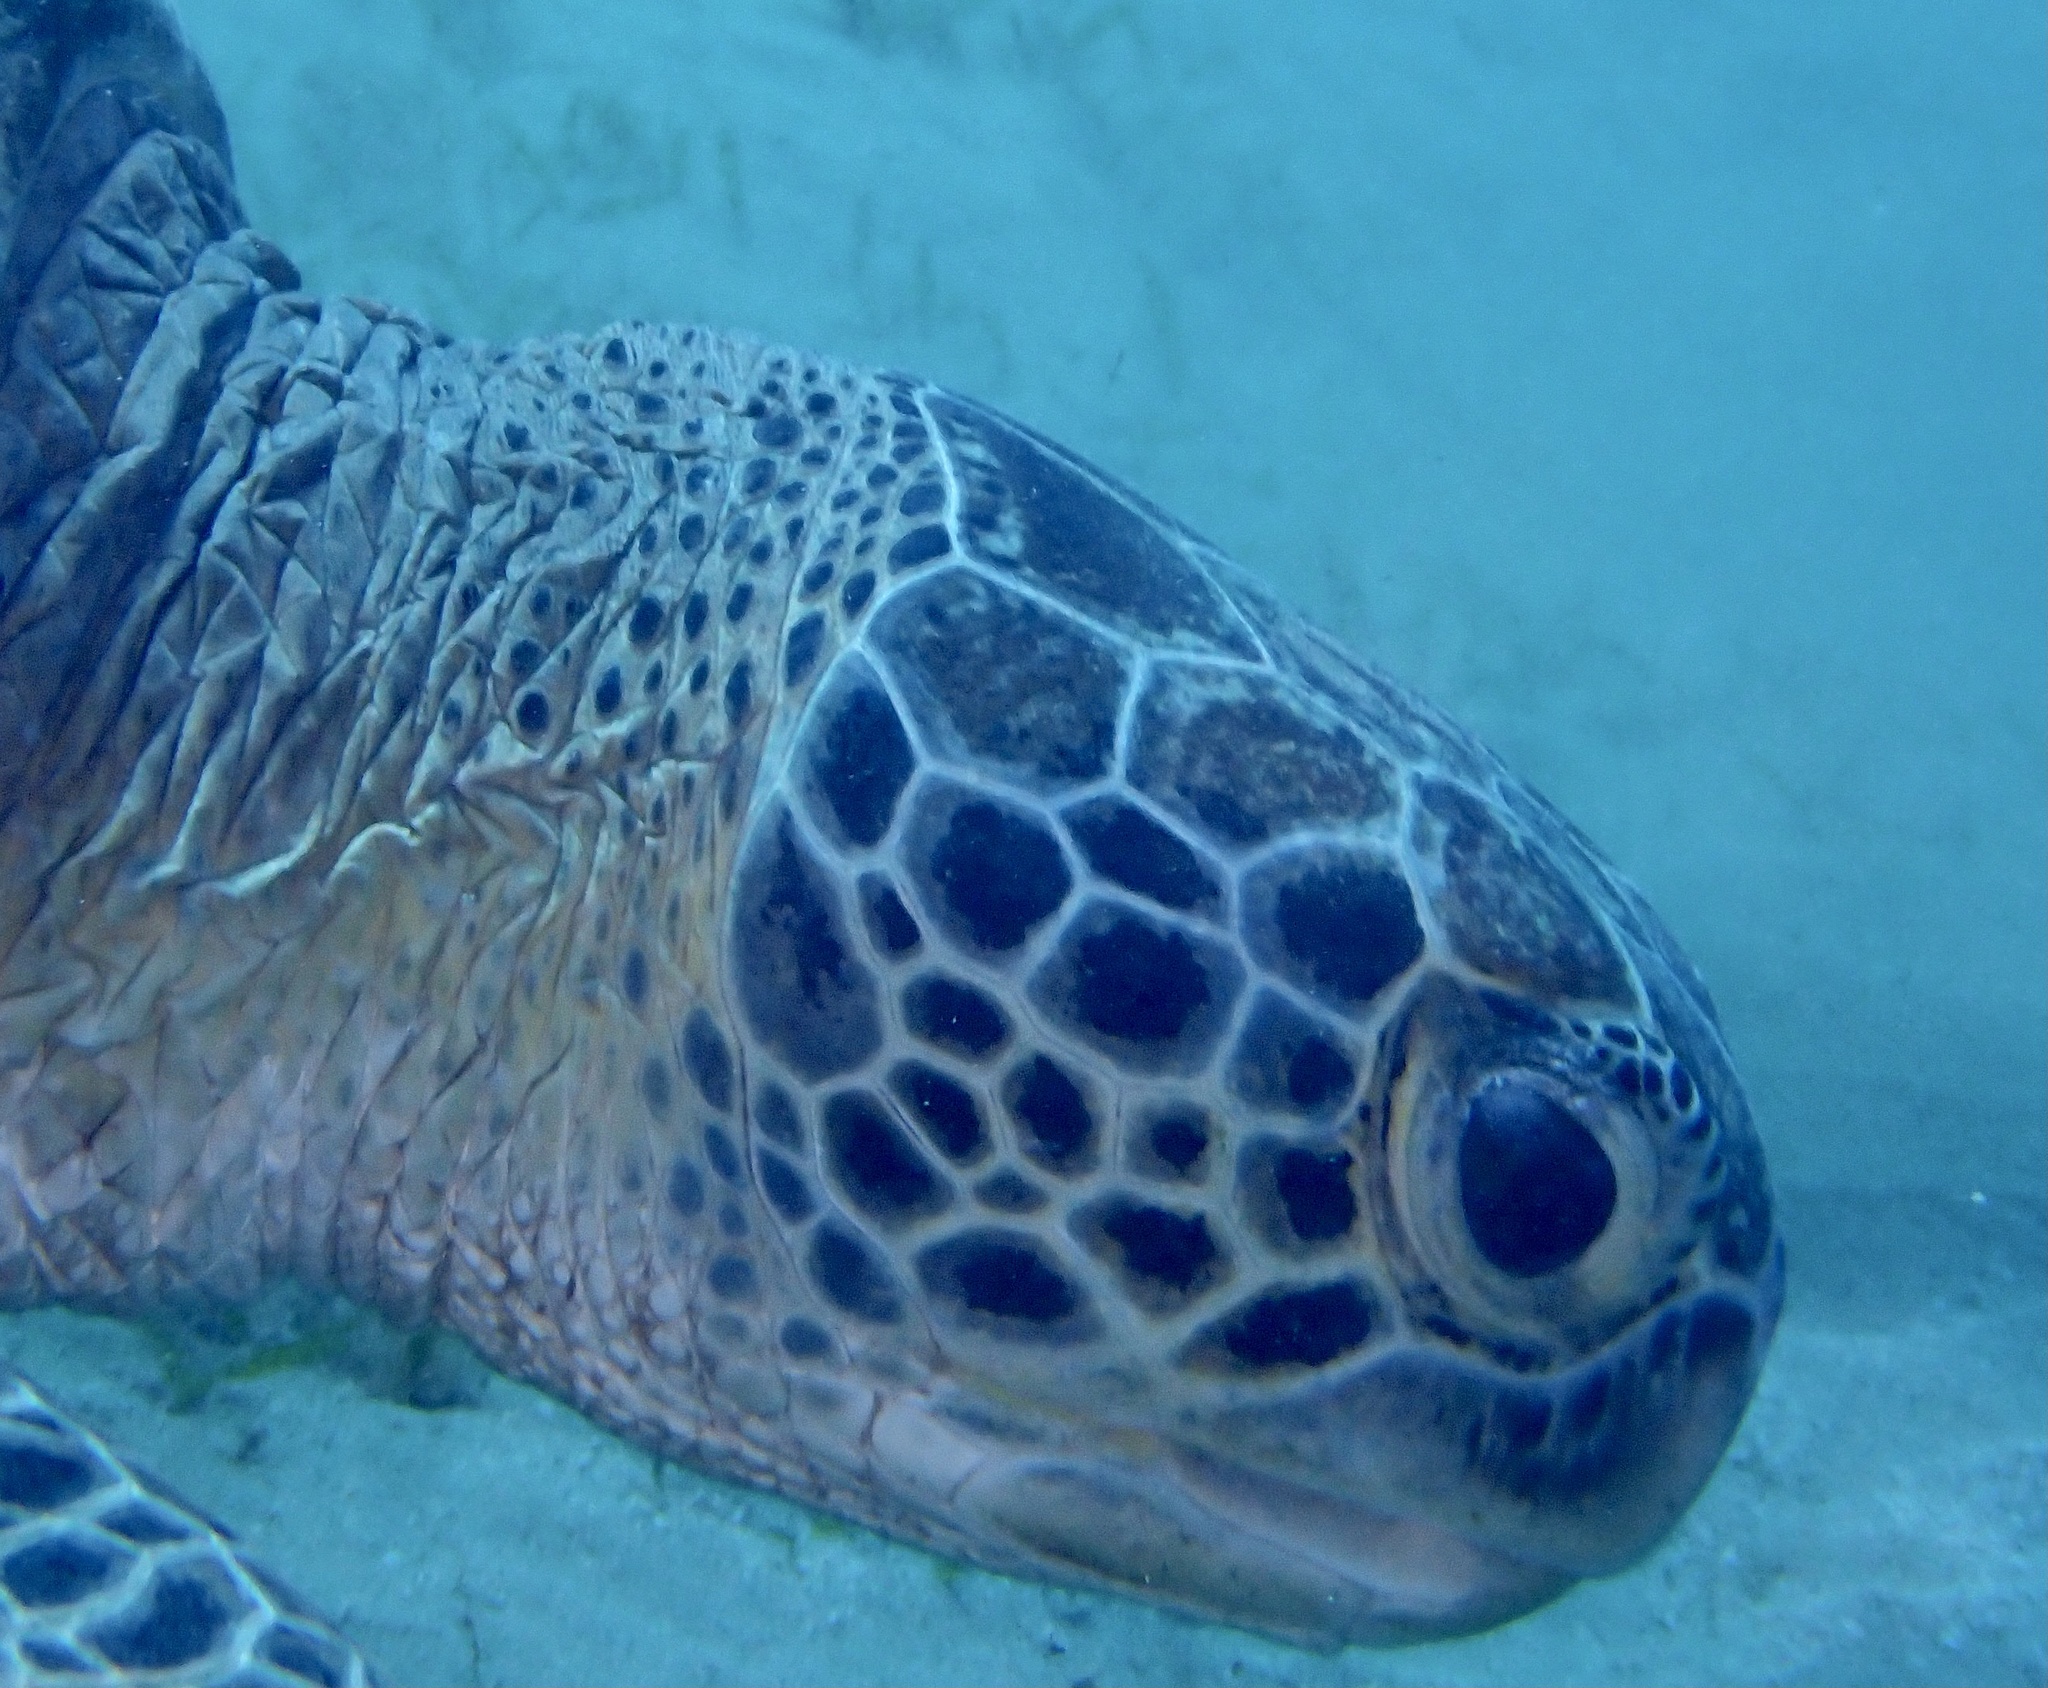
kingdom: Animalia
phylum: Chordata
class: Testudines
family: Cheloniidae
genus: Chelonia
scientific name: Chelonia mydas
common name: Green turtle
